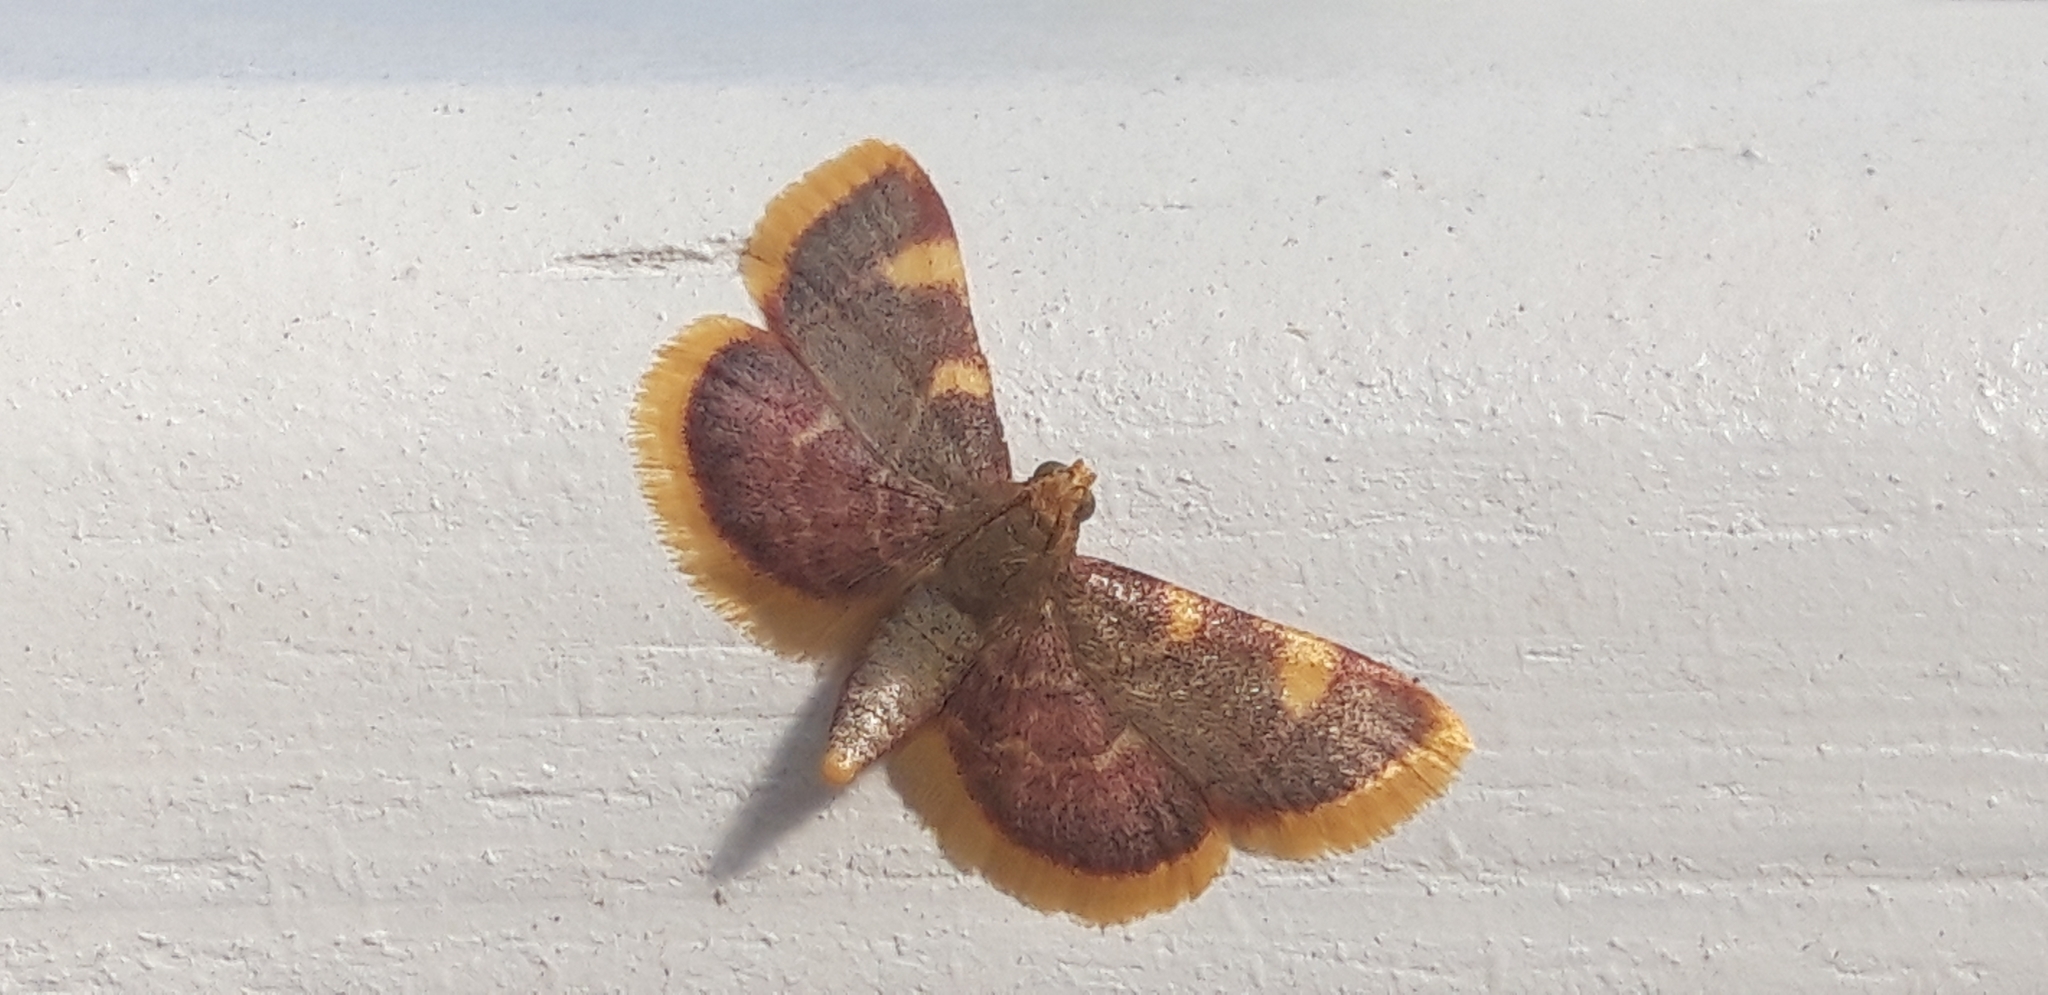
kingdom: Animalia
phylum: Arthropoda
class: Insecta
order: Lepidoptera
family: Pyralidae
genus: Hypsopygia
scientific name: Hypsopygia costalis
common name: Gold triangle
